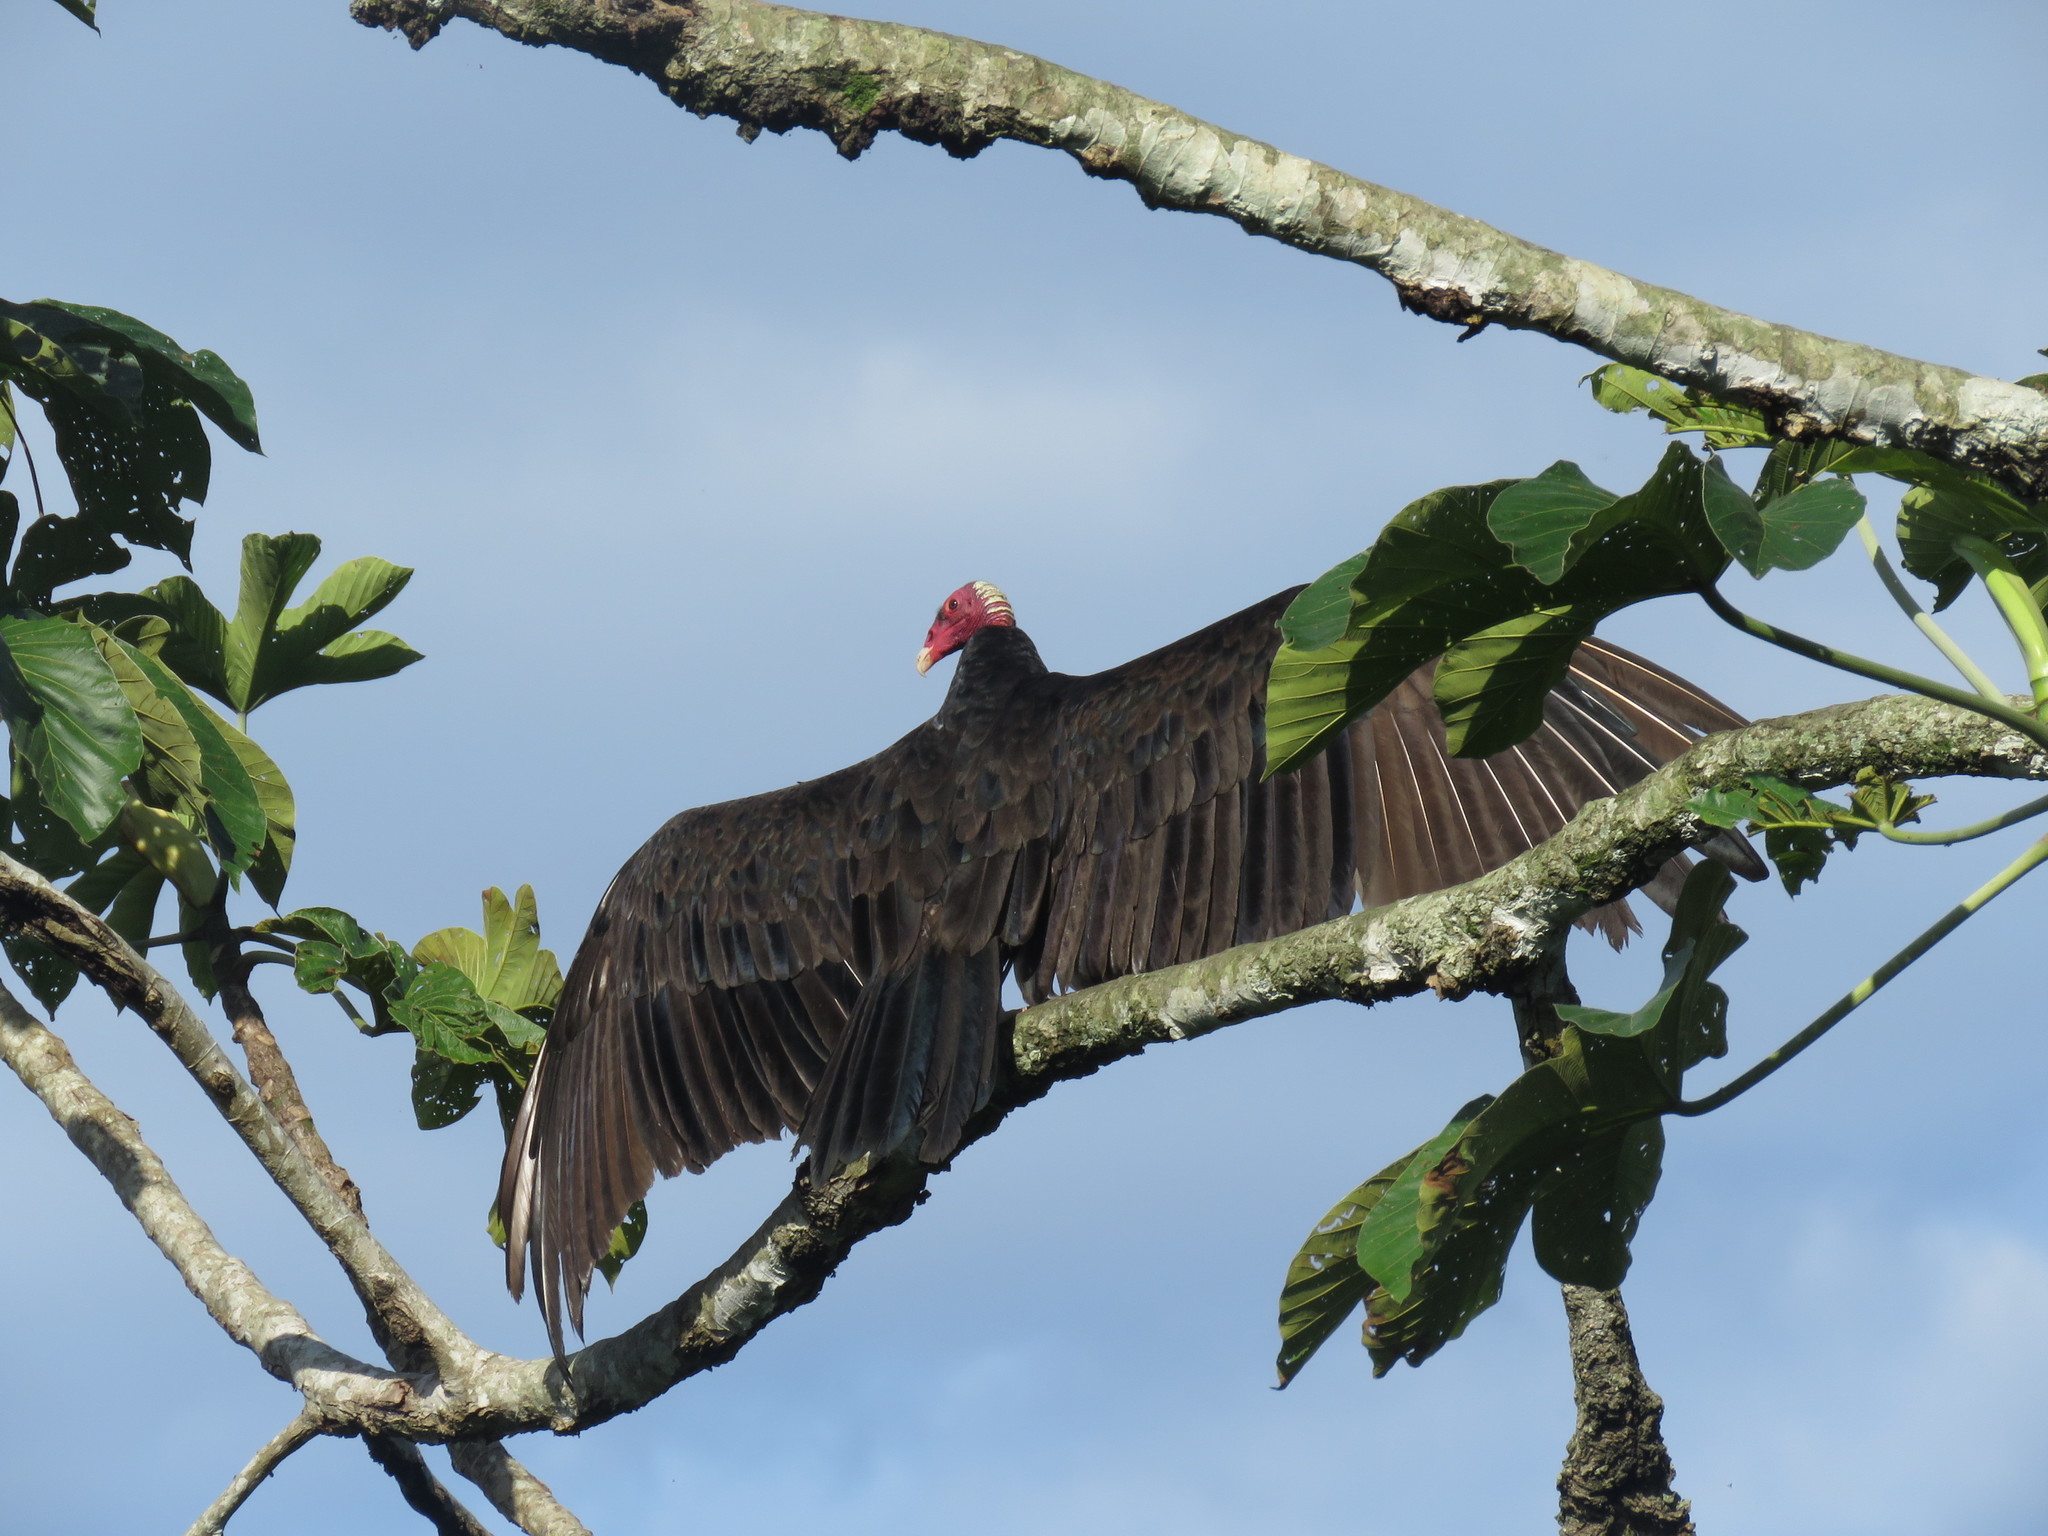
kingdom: Animalia
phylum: Chordata
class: Aves
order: Accipitriformes
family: Cathartidae
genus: Cathartes
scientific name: Cathartes aura
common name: Turkey vulture
